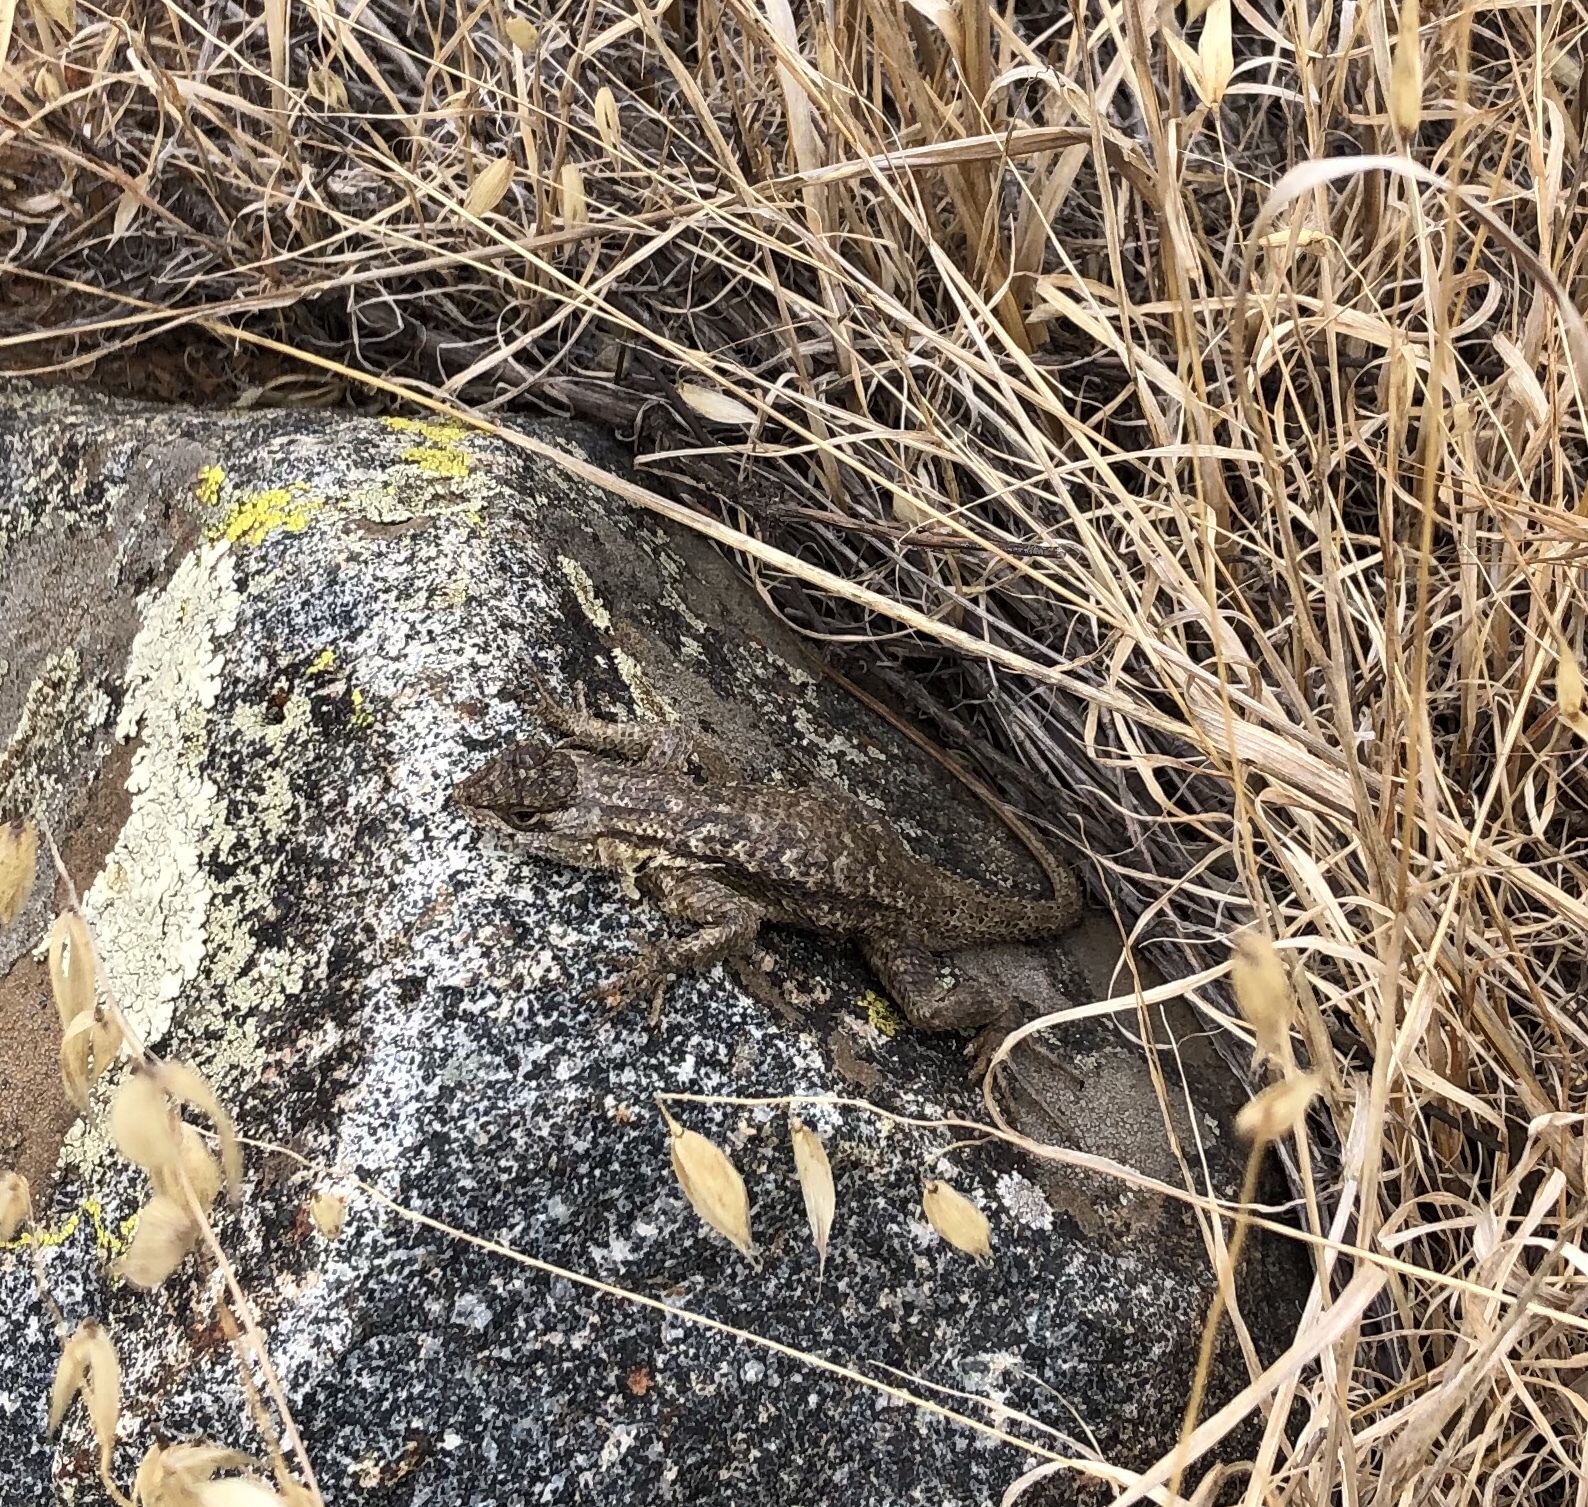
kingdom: Animalia
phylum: Chordata
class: Squamata
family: Phrynosomatidae
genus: Sceloporus
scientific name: Sceloporus occidentalis
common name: Western fence lizard
